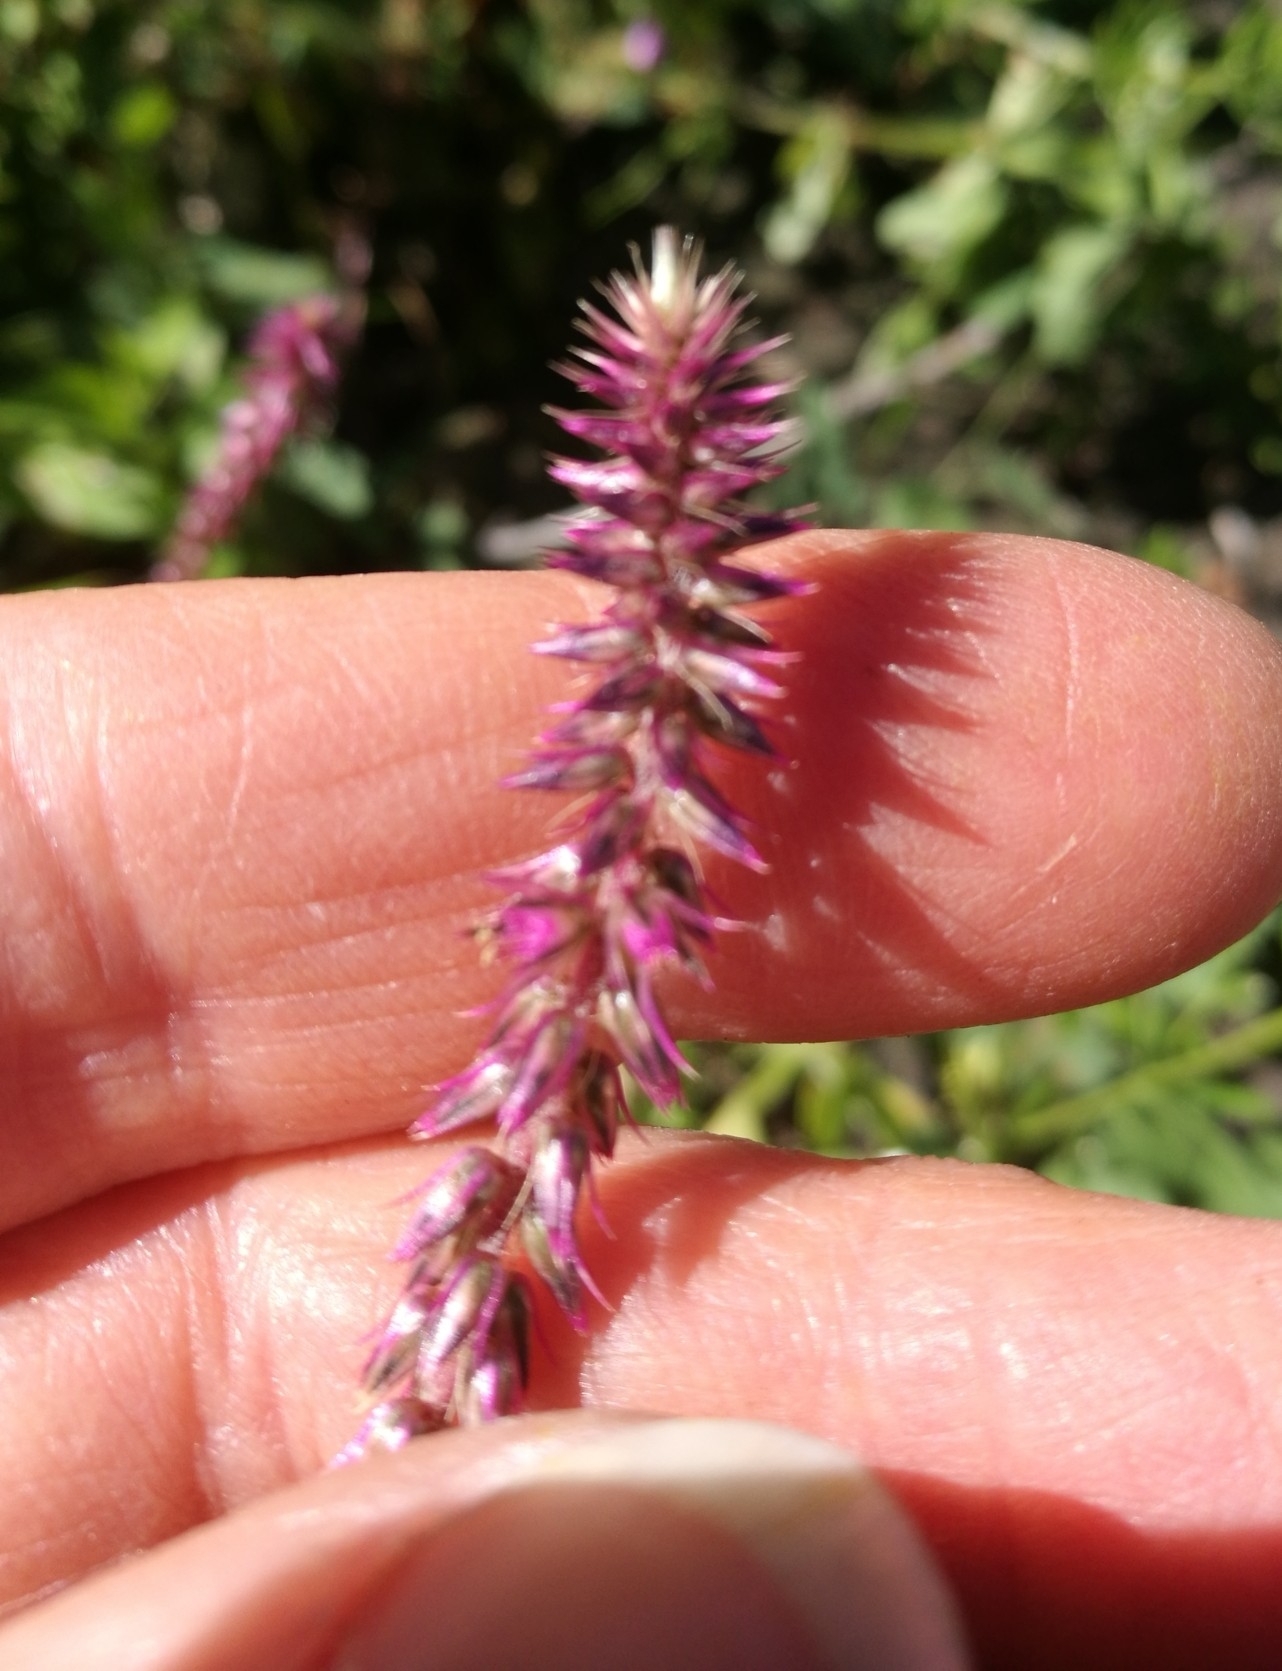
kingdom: Plantae
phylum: Tracheophyta
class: Magnoliopsida
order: Caryophyllales
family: Amaranthaceae
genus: Achyranthes
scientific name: Achyranthes aspera
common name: Devil's horsewhip
